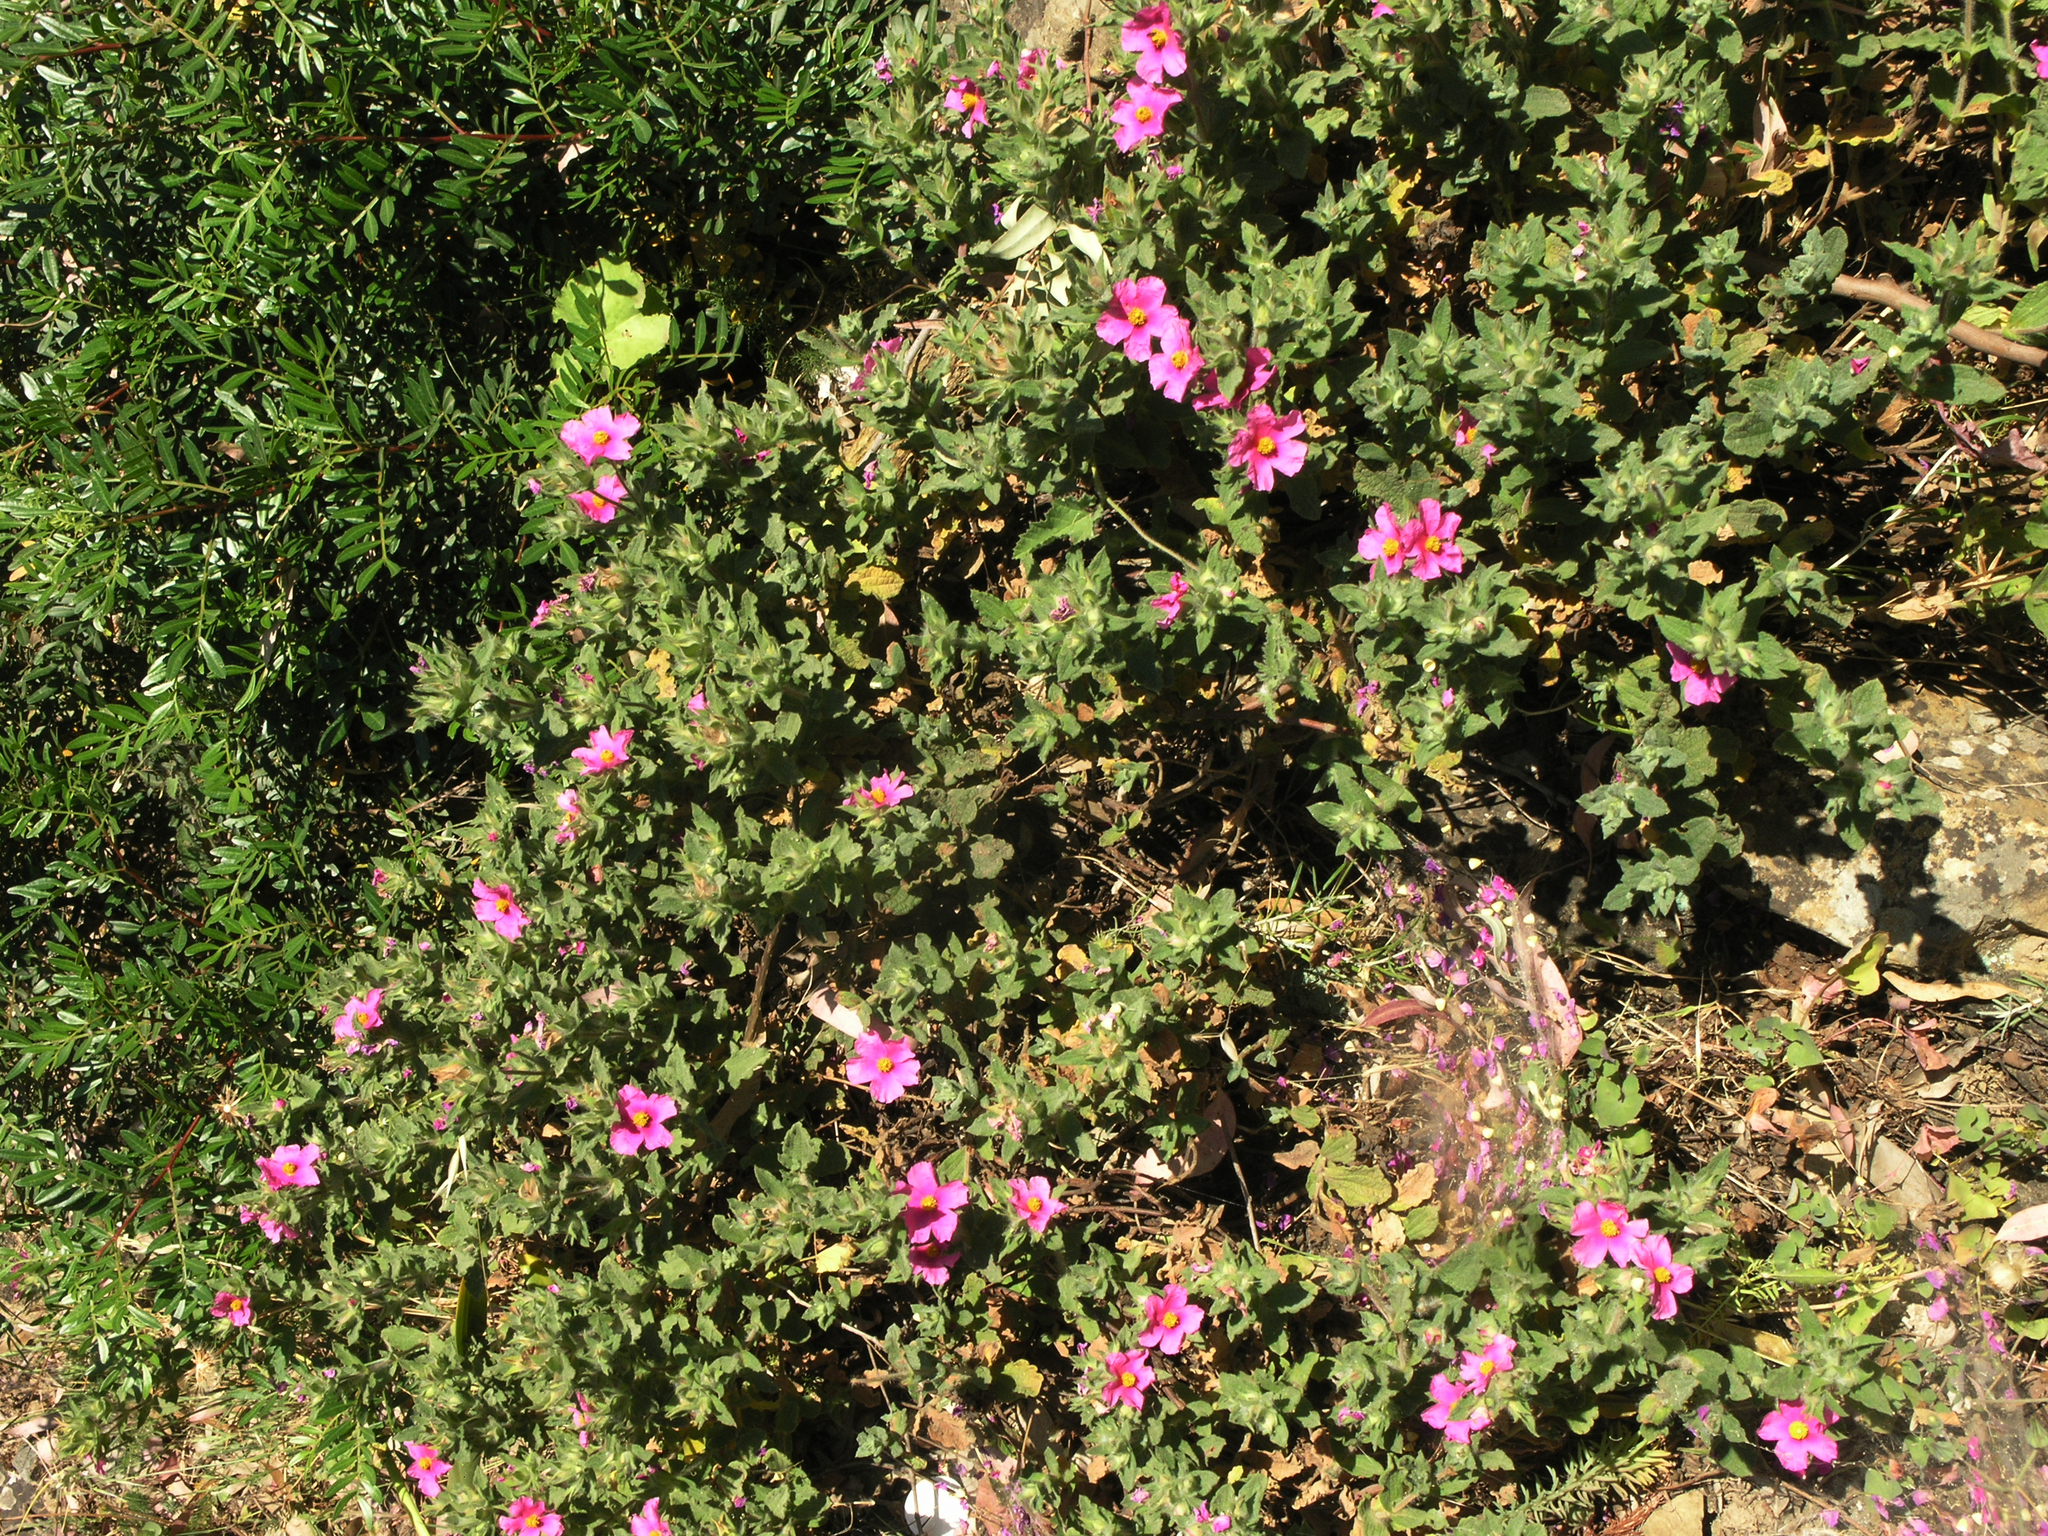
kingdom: Plantae
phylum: Tracheophyta
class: Magnoliopsida
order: Malvales
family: Cistaceae
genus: Cistus
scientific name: Cistus crispus
